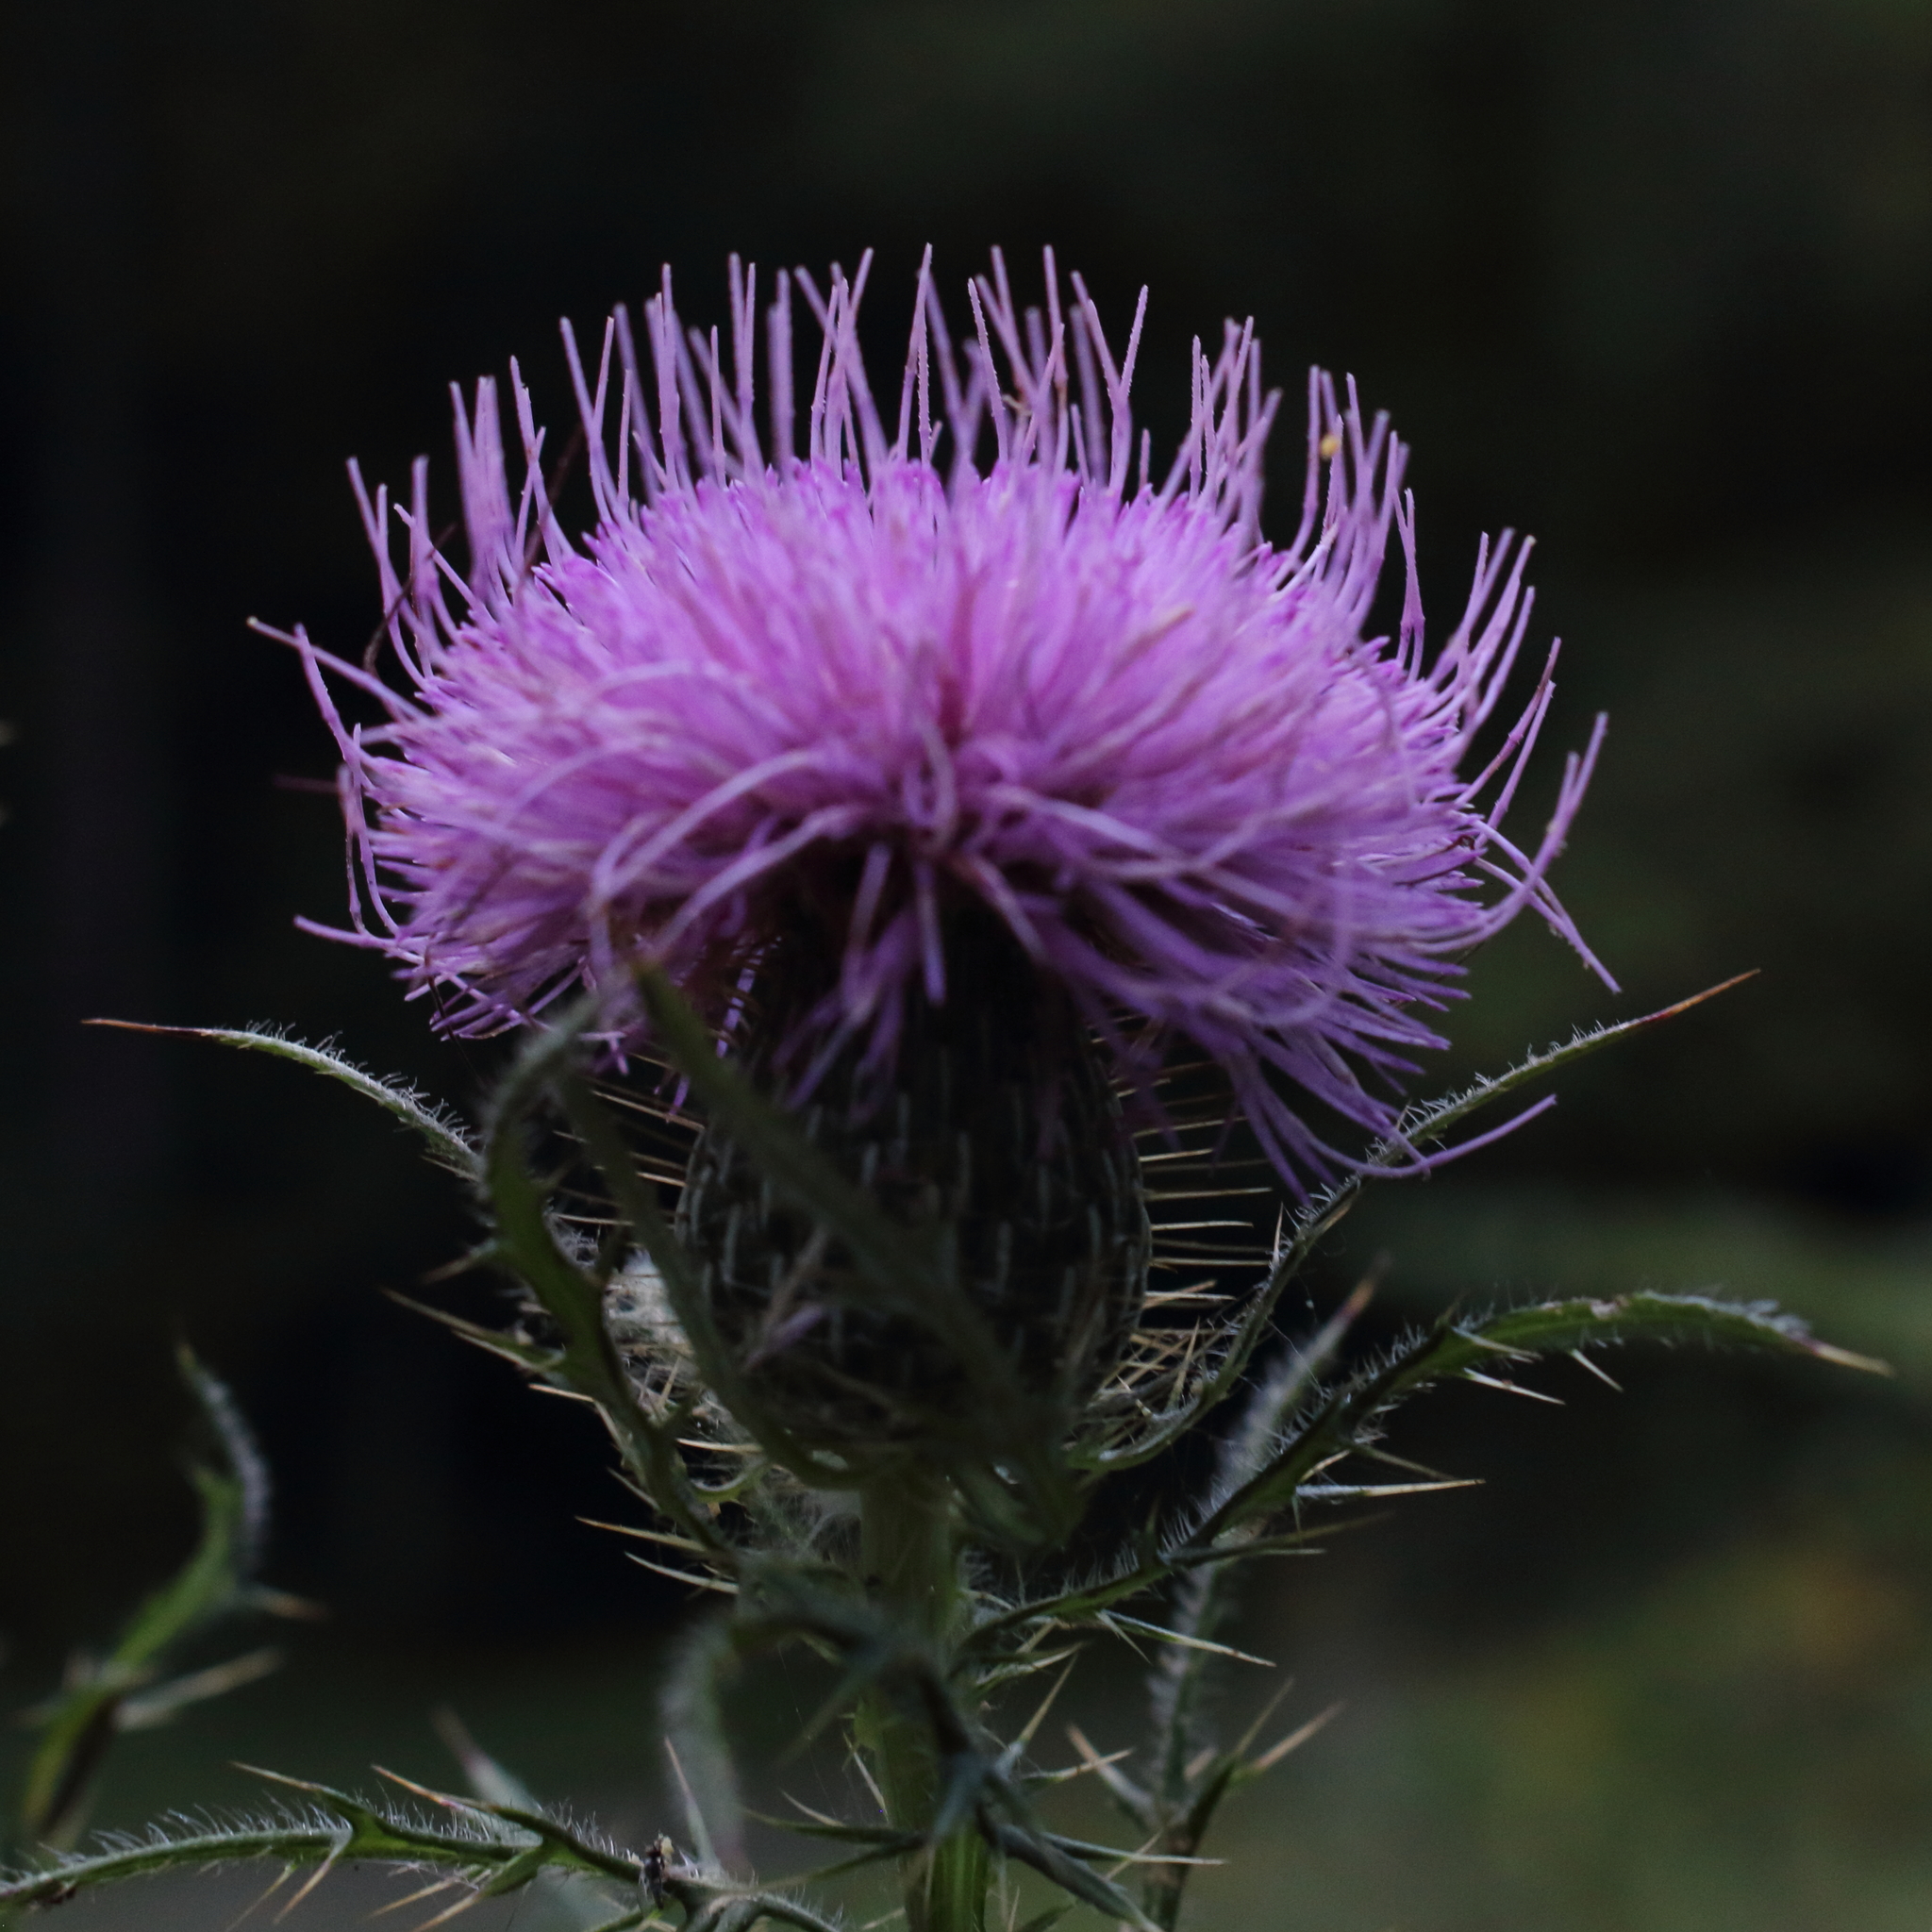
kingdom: Plantae
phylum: Tracheophyta
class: Magnoliopsida
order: Asterales
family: Asteraceae
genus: Cirsium
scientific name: Cirsium discolor
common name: Field thistle
